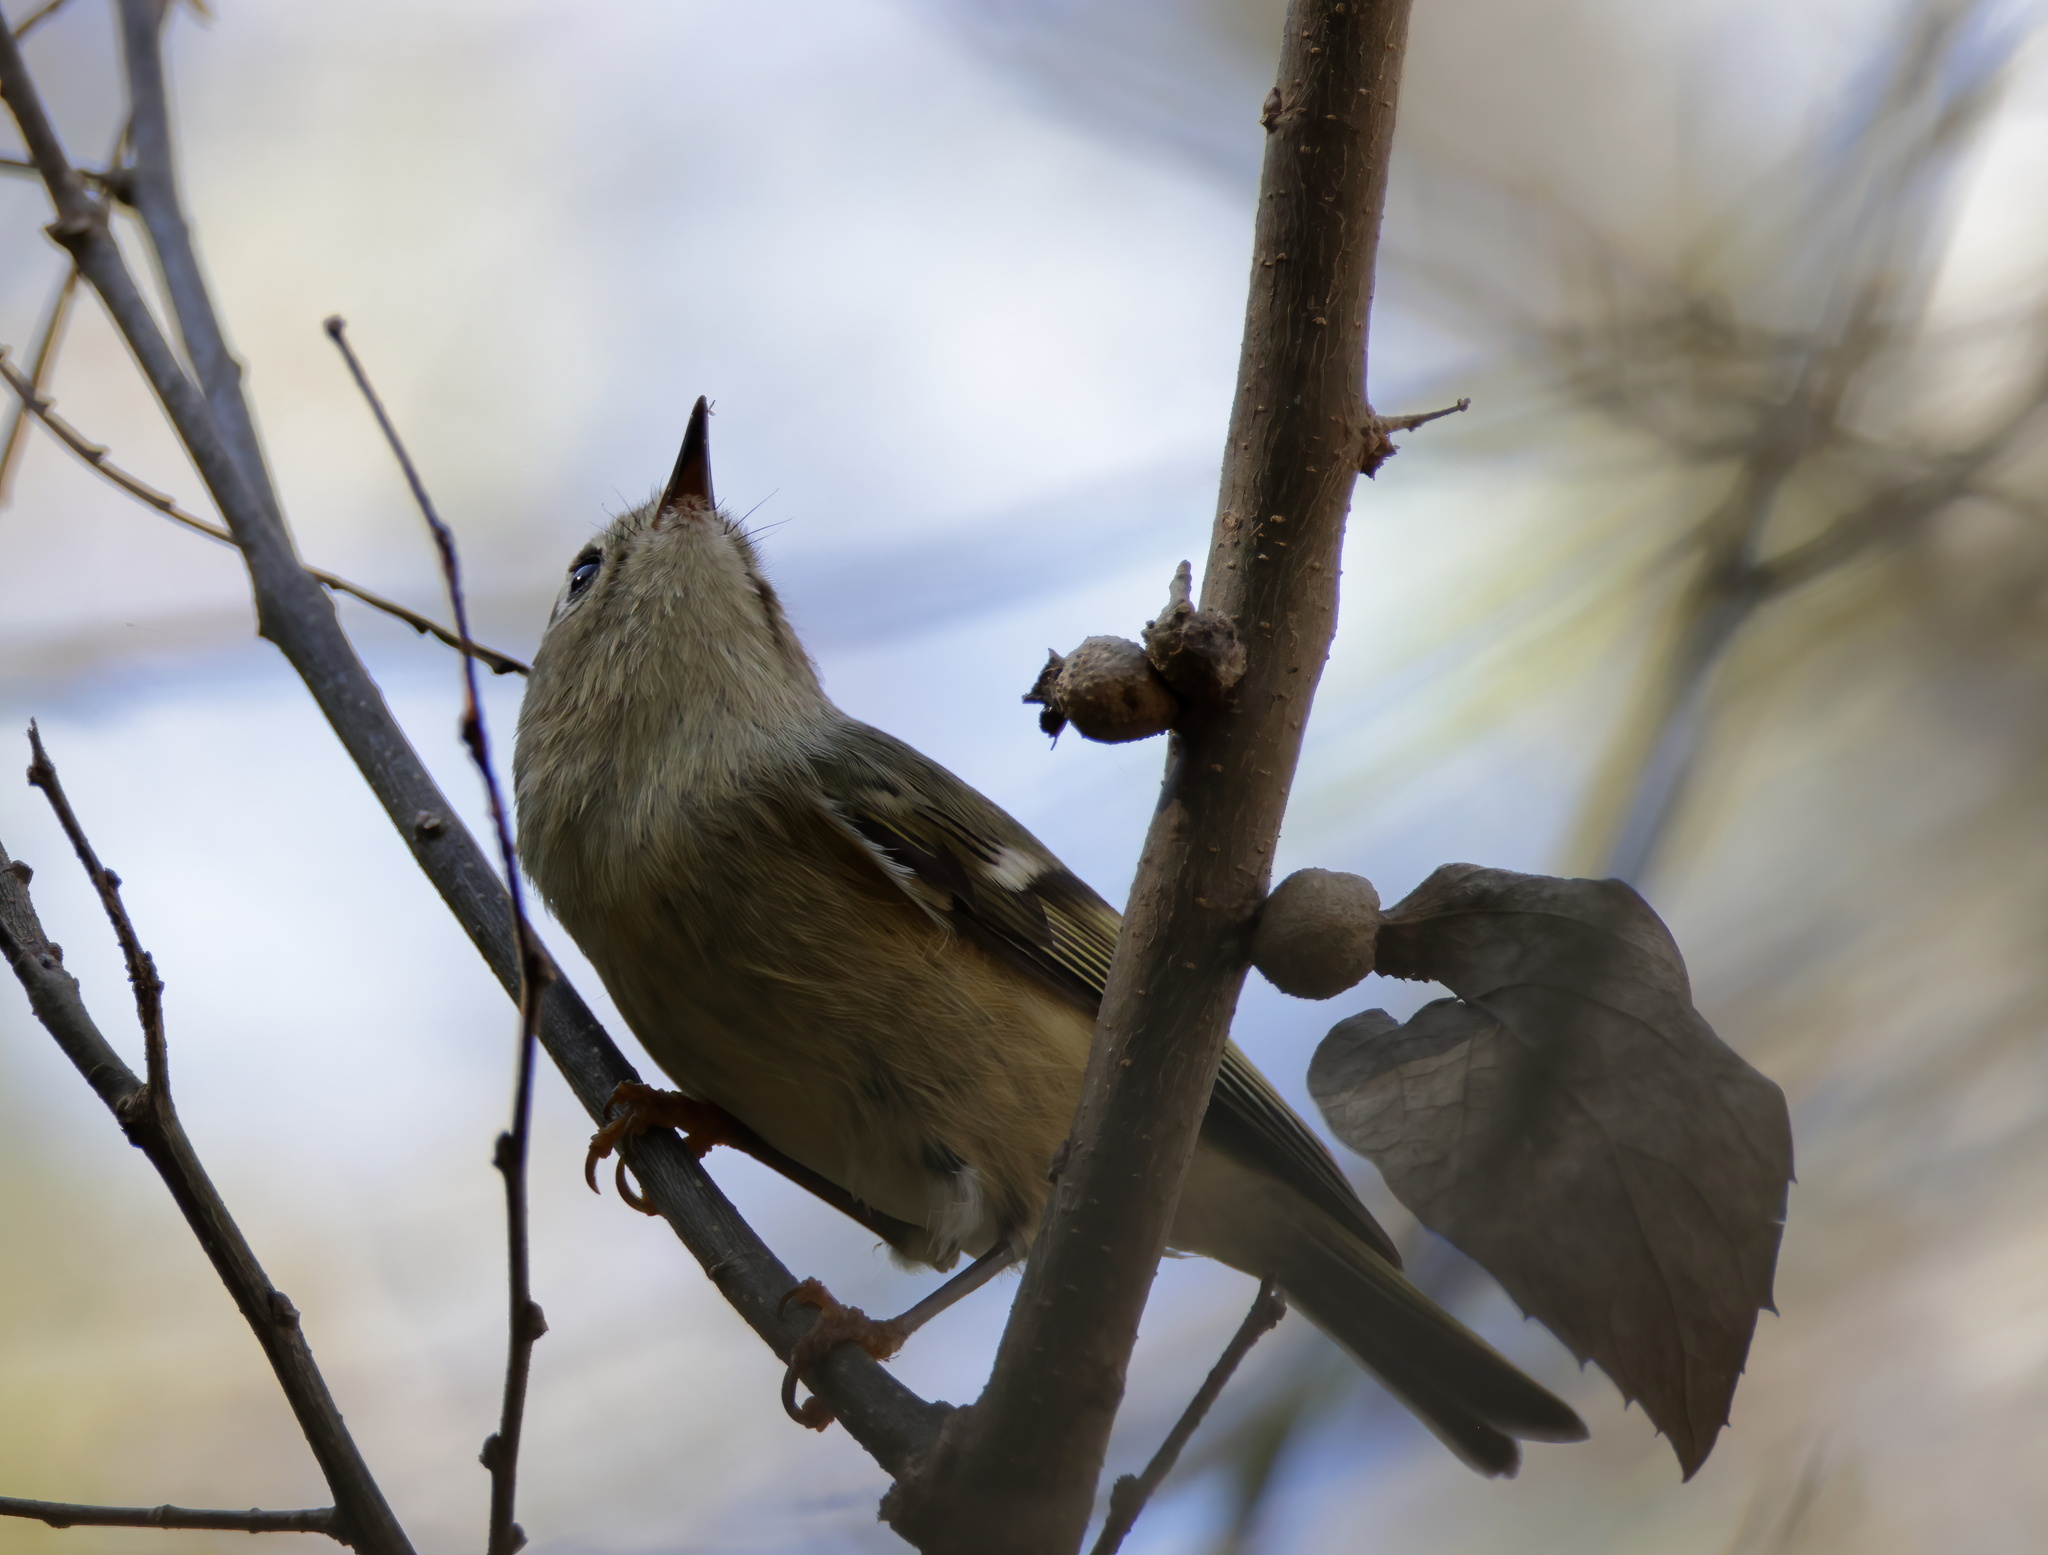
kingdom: Animalia
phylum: Chordata
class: Aves
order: Passeriformes
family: Regulidae
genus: Regulus
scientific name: Regulus calendula
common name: Ruby-crowned kinglet
